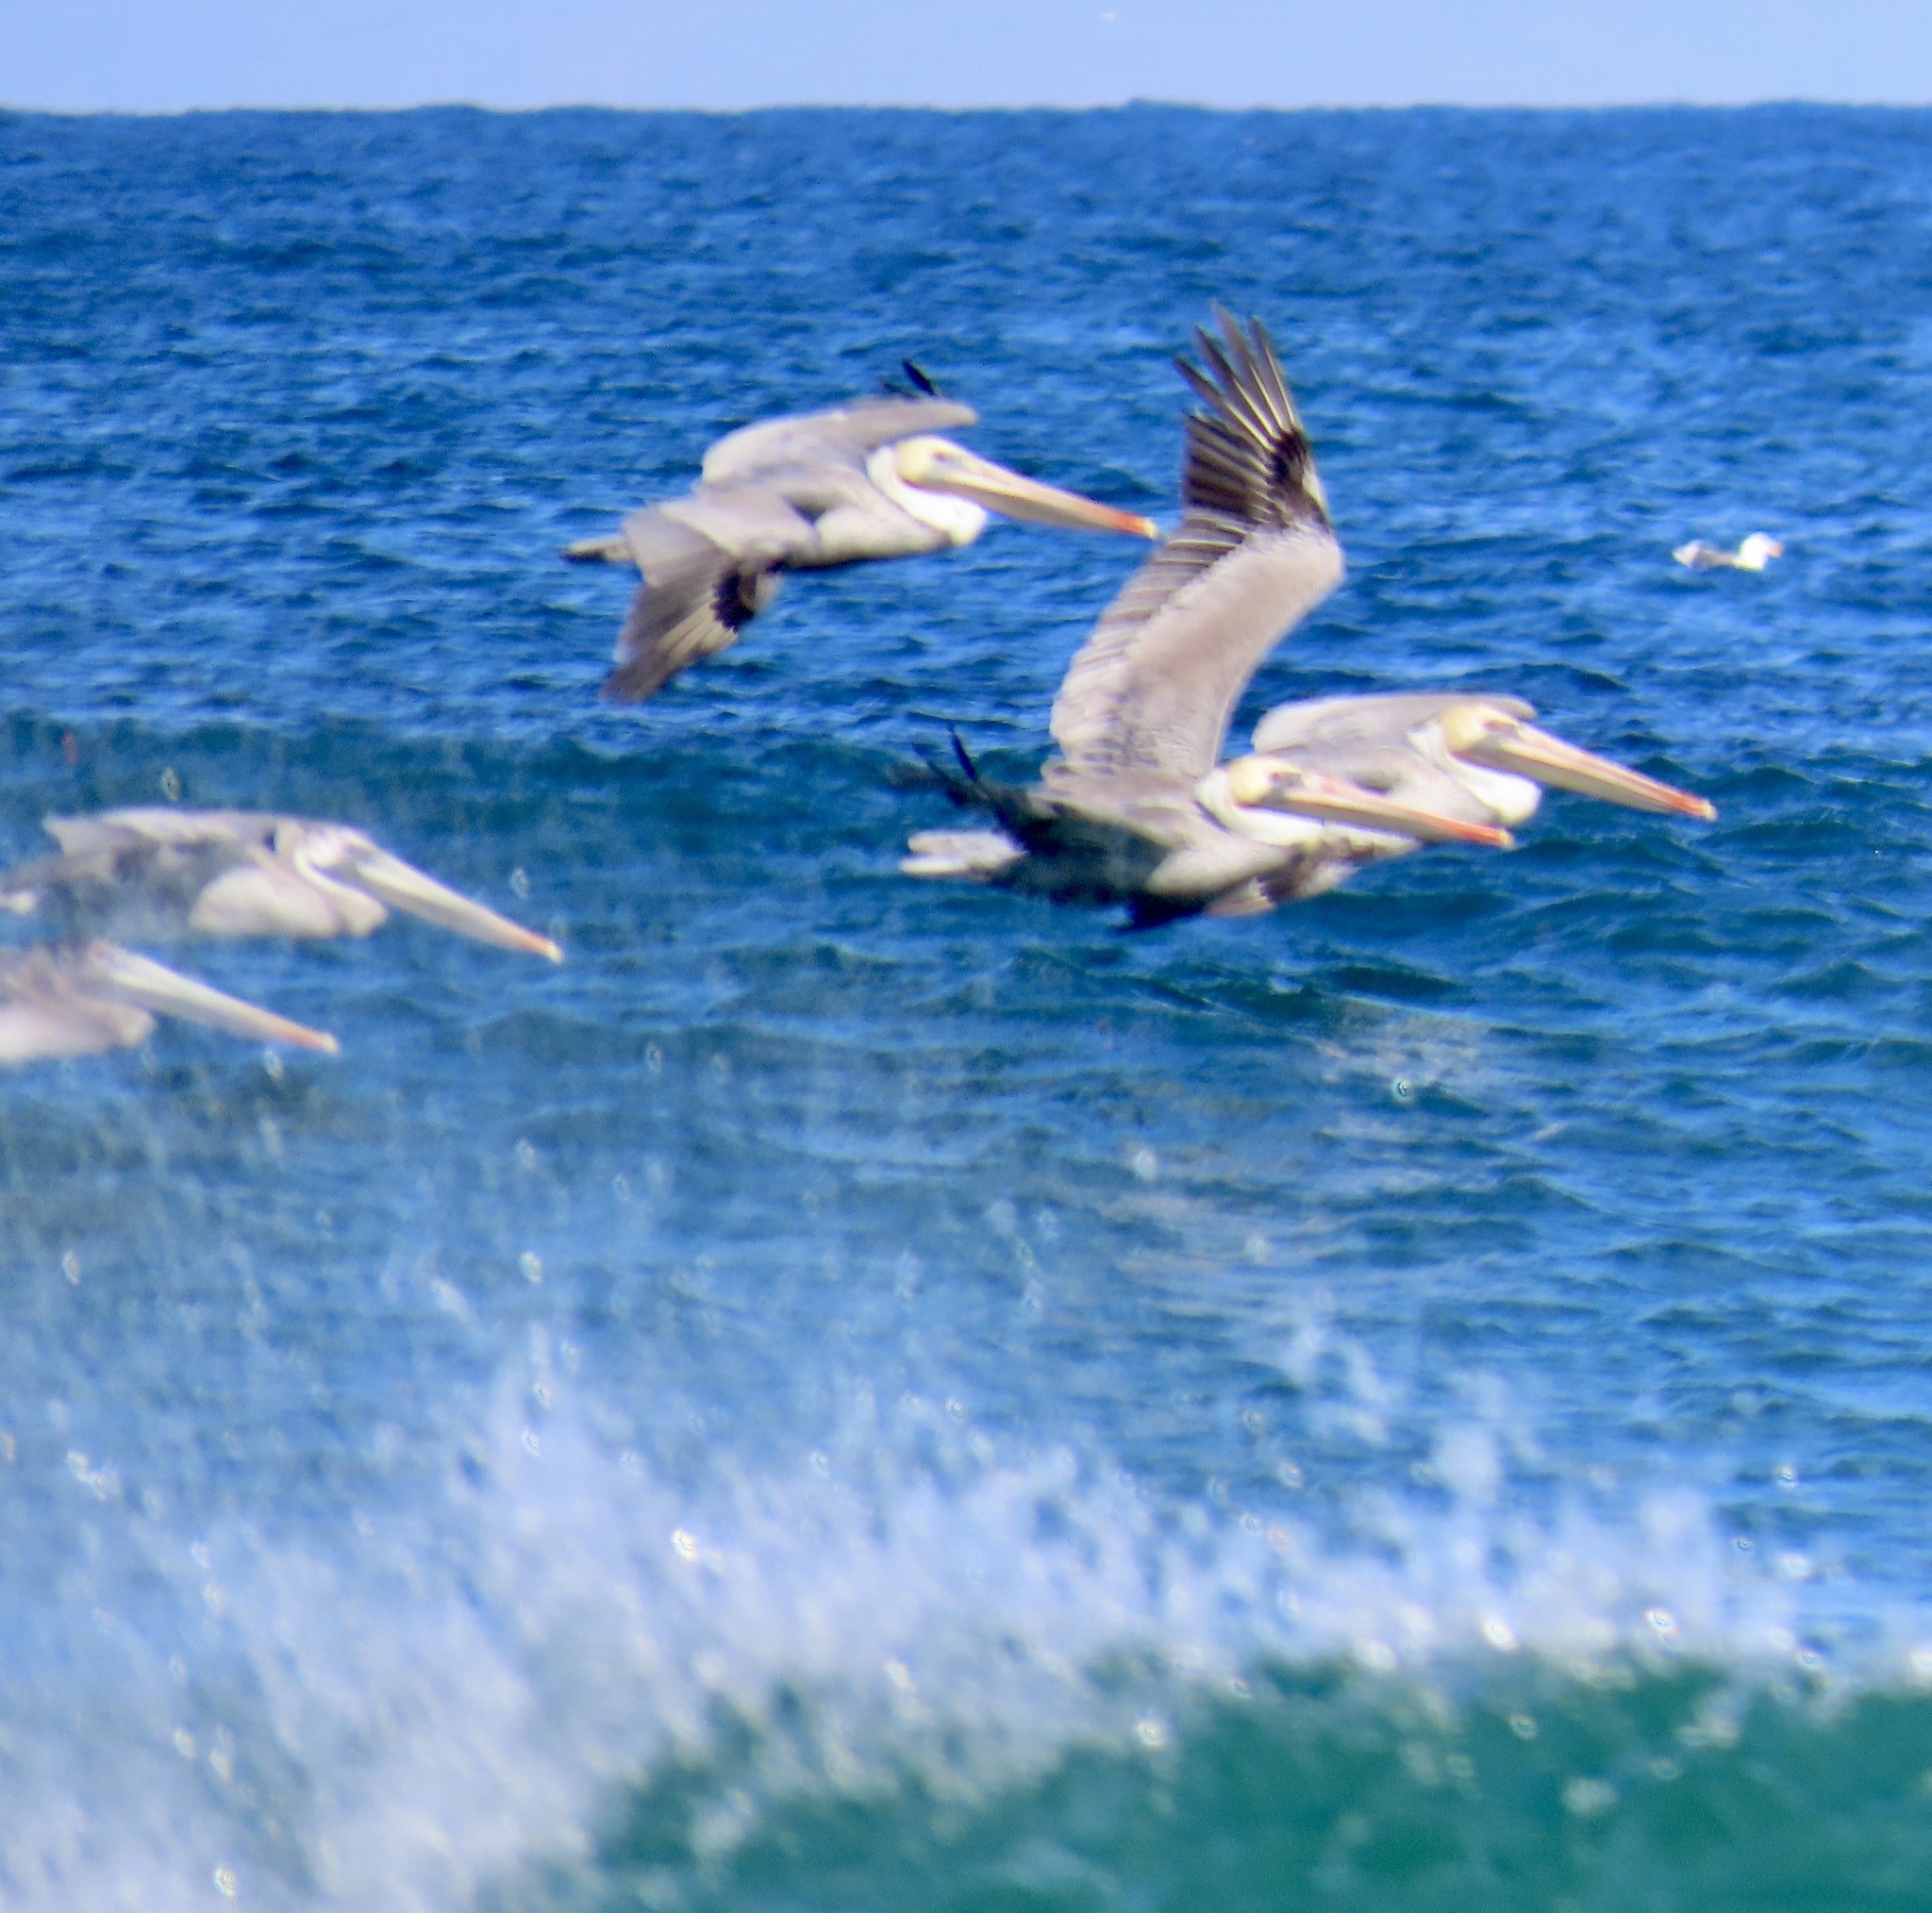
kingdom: Animalia
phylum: Chordata
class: Aves
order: Pelecaniformes
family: Pelecanidae
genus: Pelecanus
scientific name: Pelecanus occidentalis
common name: Brown pelican
